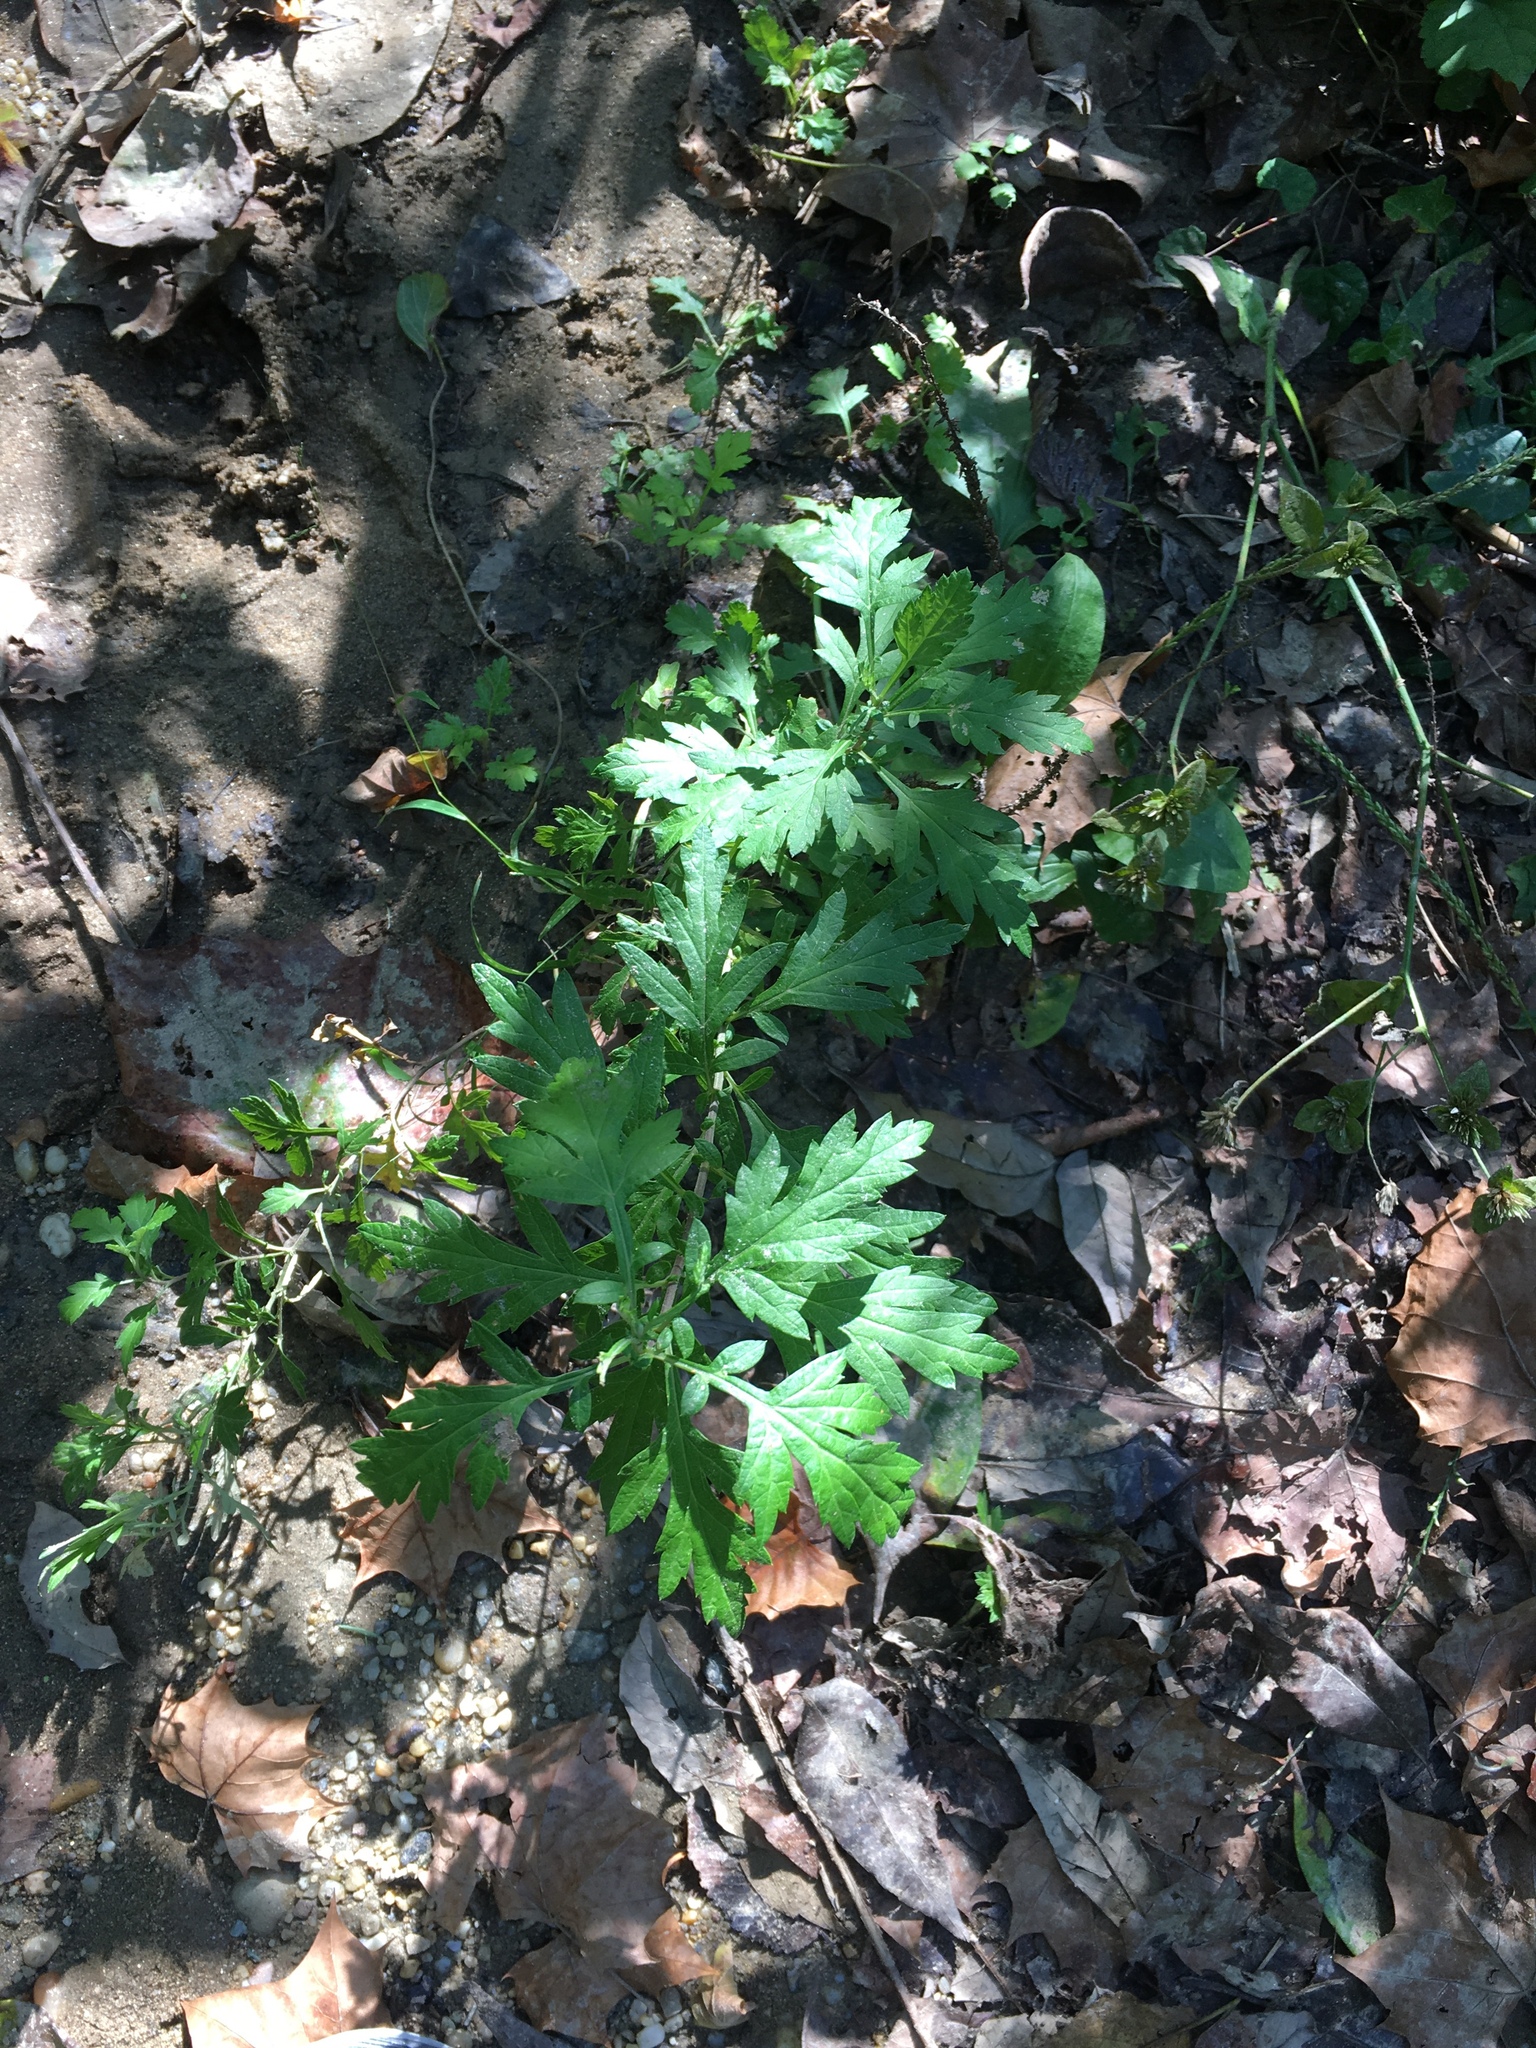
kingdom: Plantae
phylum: Tracheophyta
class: Magnoliopsida
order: Asterales
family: Asteraceae
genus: Artemisia
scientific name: Artemisia vulgaris
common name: Mugwort
